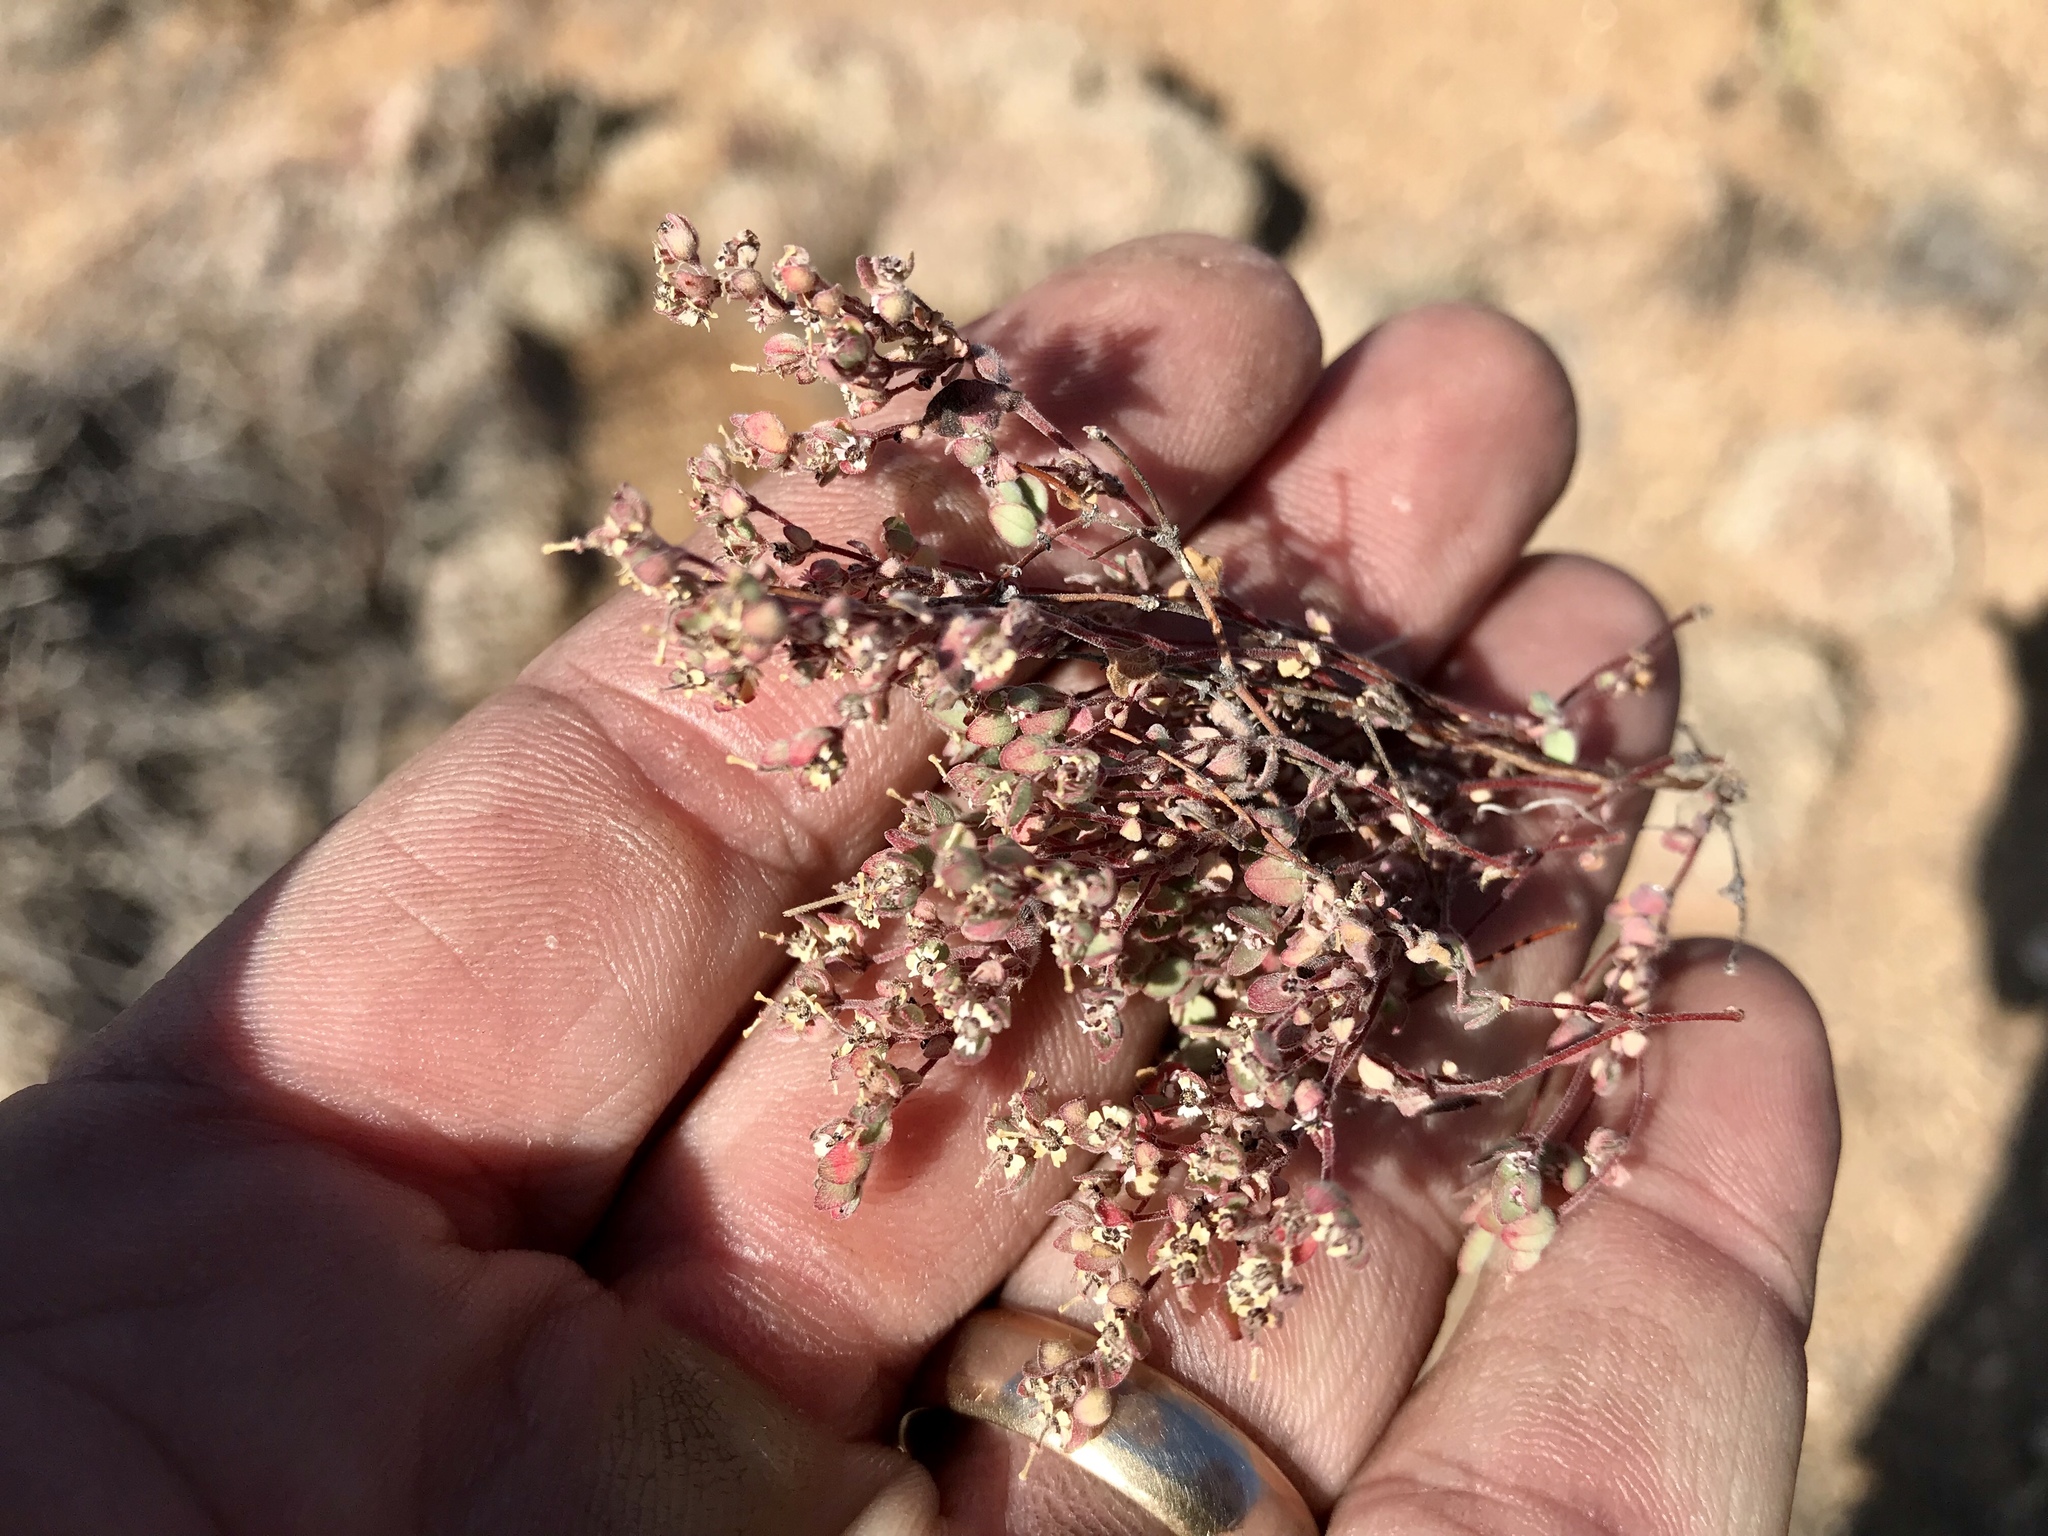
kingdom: Plantae
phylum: Tracheophyta
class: Magnoliopsida
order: Malpighiales
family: Euphorbiaceae
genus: Euphorbia
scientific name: Euphorbia melanadenia
